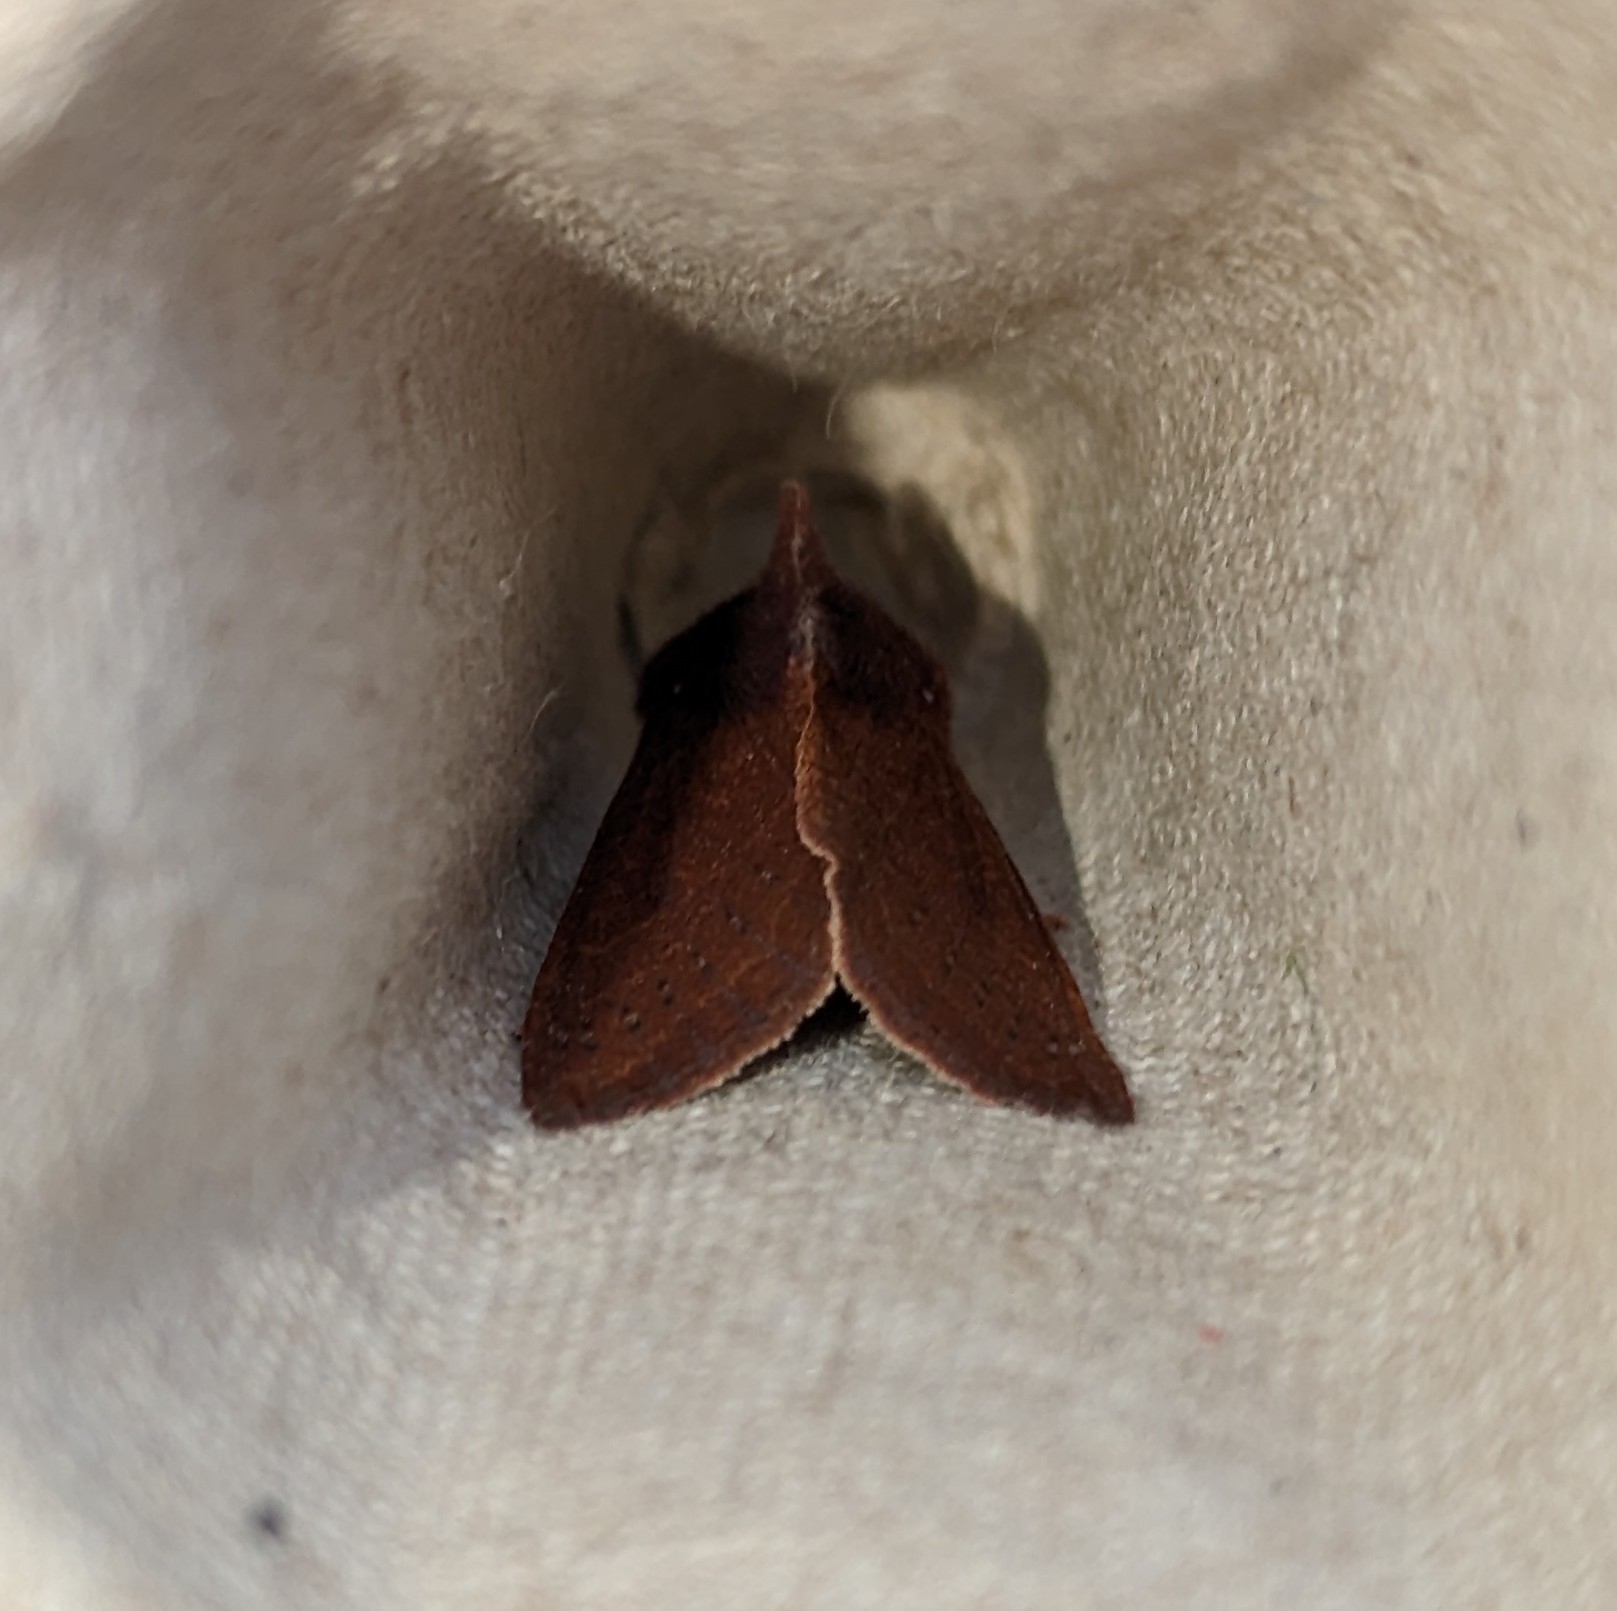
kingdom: Animalia
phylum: Arthropoda
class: Insecta
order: Lepidoptera
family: Noctuidae
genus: Orthosia
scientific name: Orthosia transparens
